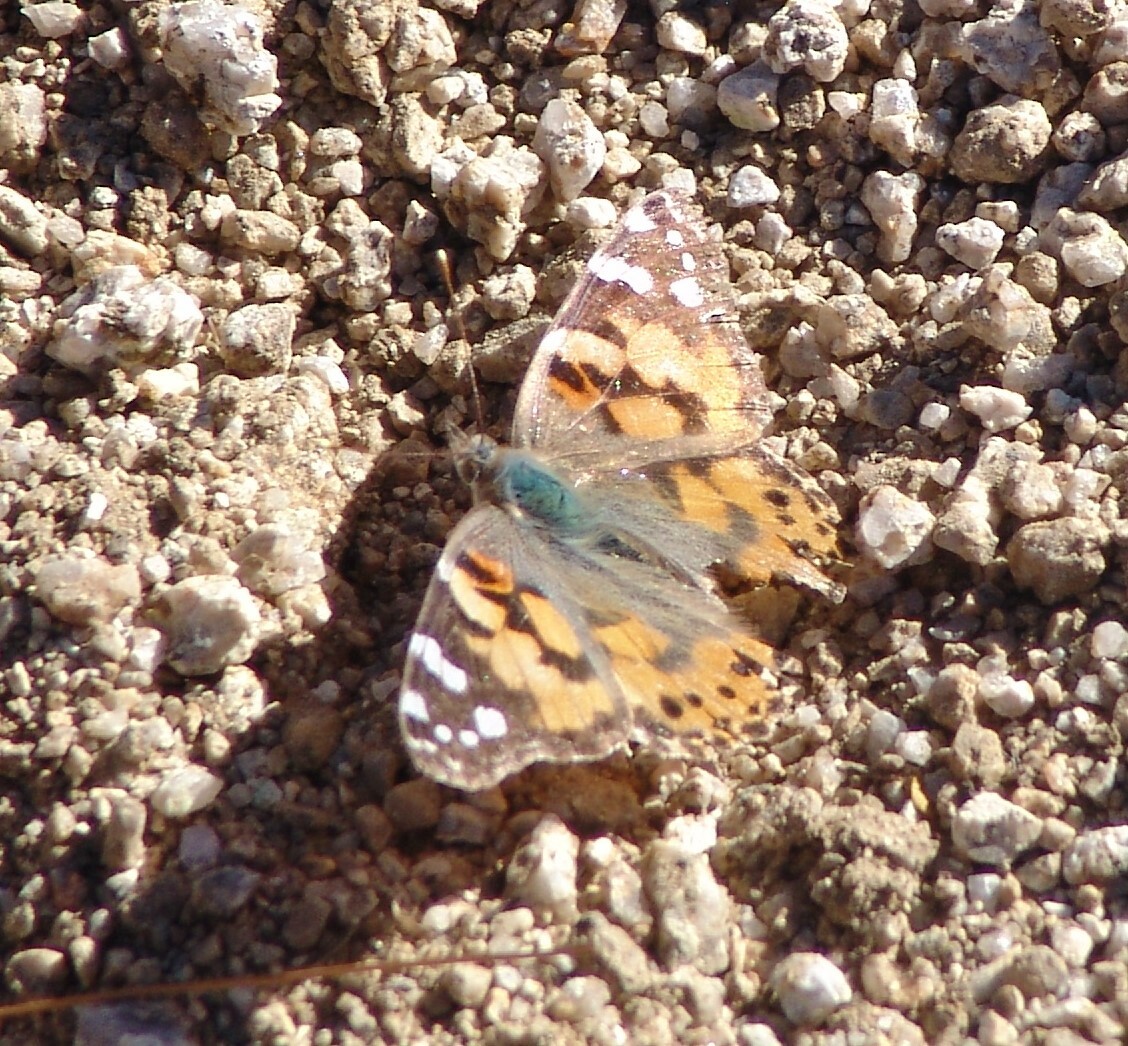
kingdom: Animalia
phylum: Arthropoda
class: Insecta
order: Lepidoptera
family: Nymphalidae
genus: Vanessa
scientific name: Vanessa cardui
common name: Painted lady
